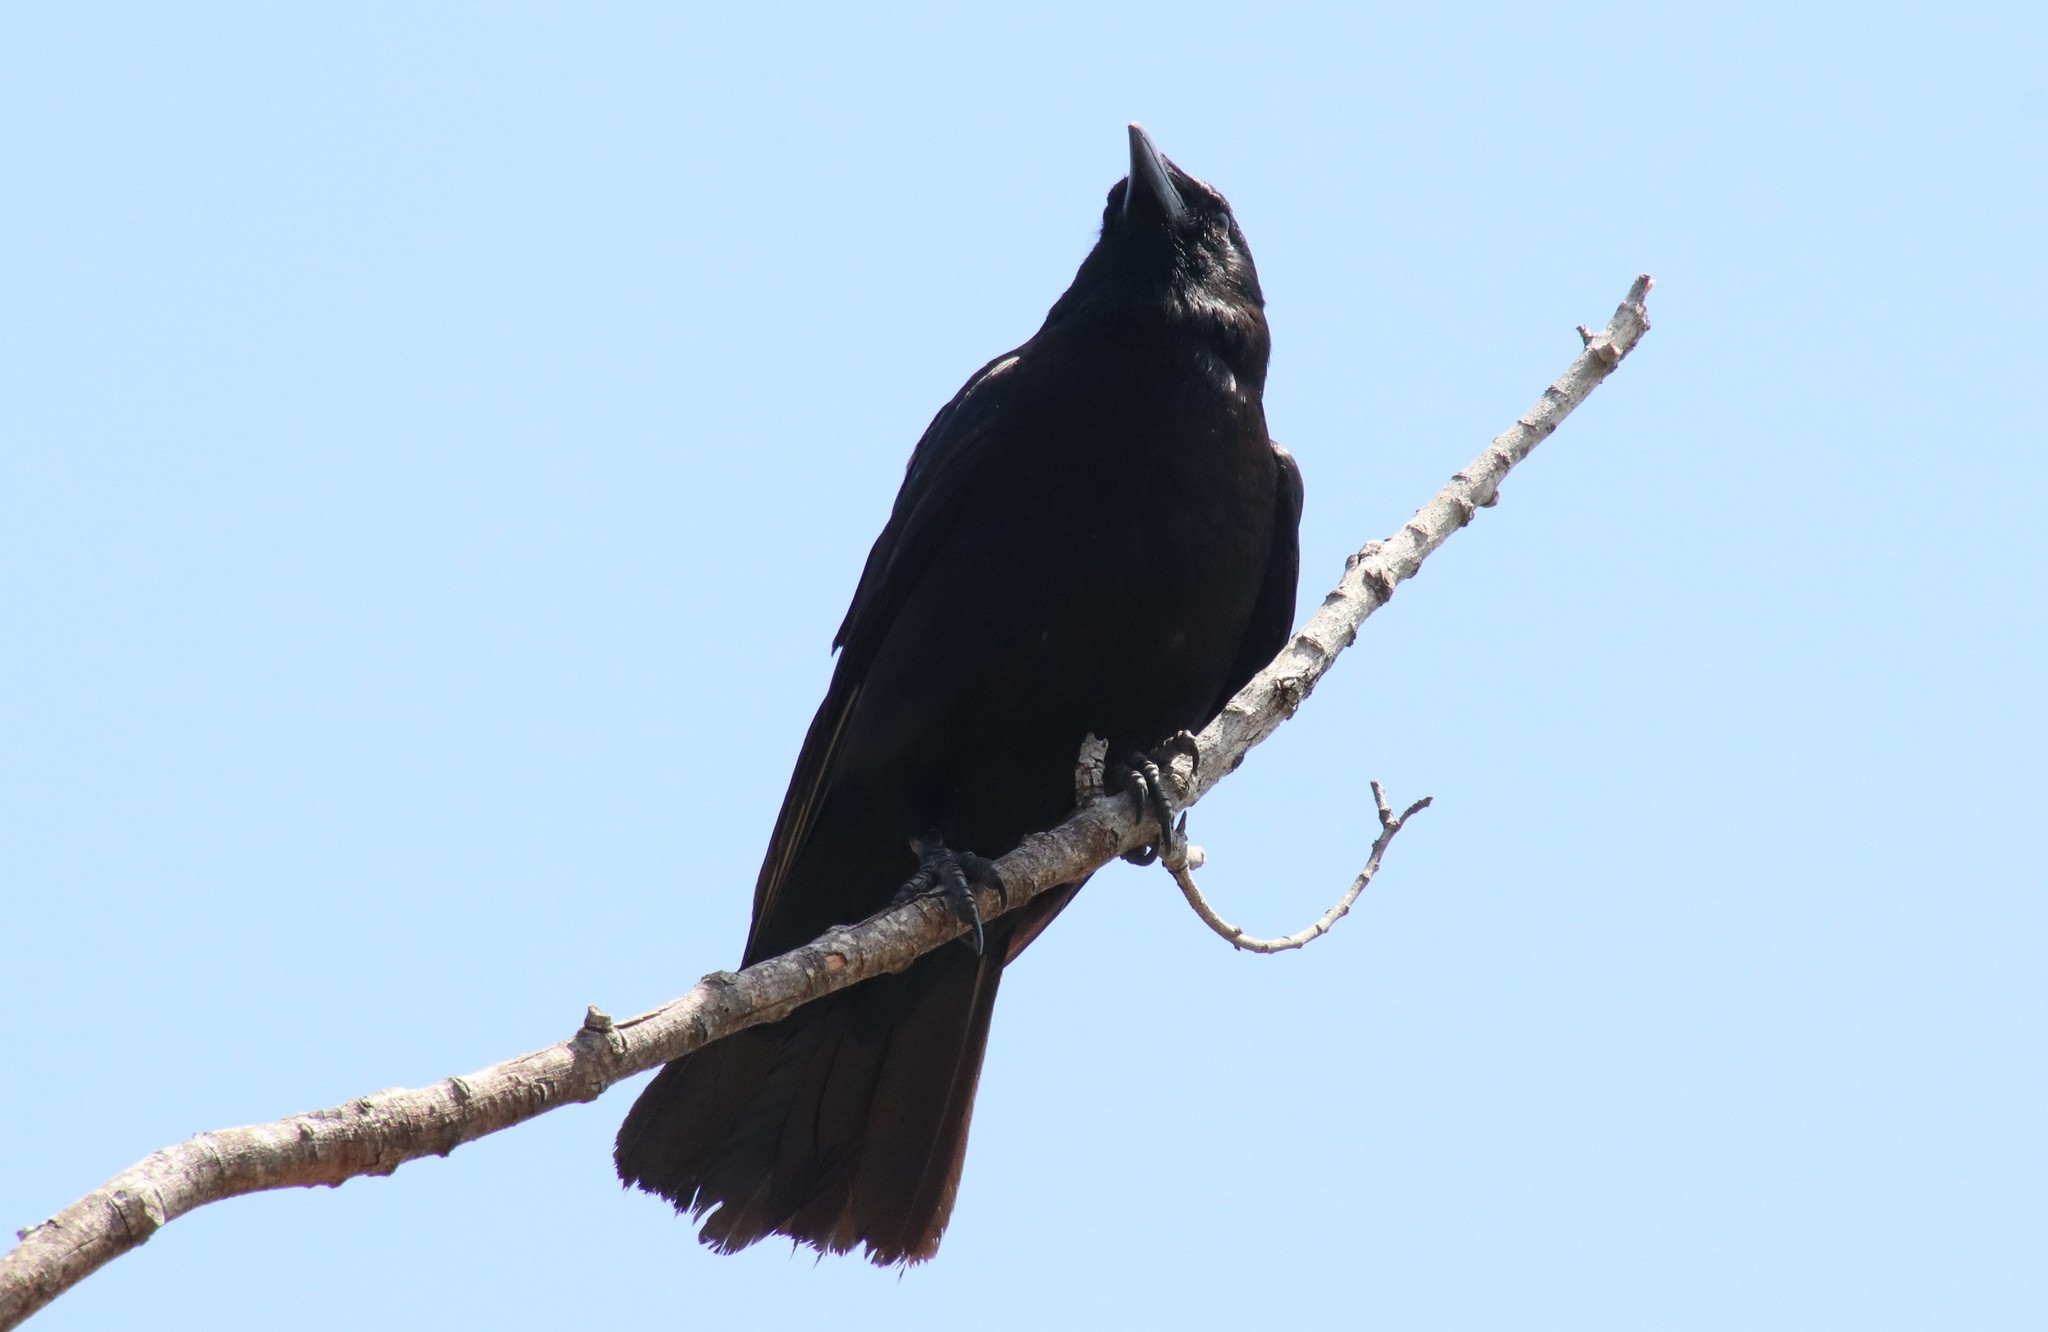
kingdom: Animalia
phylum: Chordata
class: Aves
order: Passeriformes
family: Corvidae
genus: Corvus
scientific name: Corvus brachyrhynchos
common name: American crow
